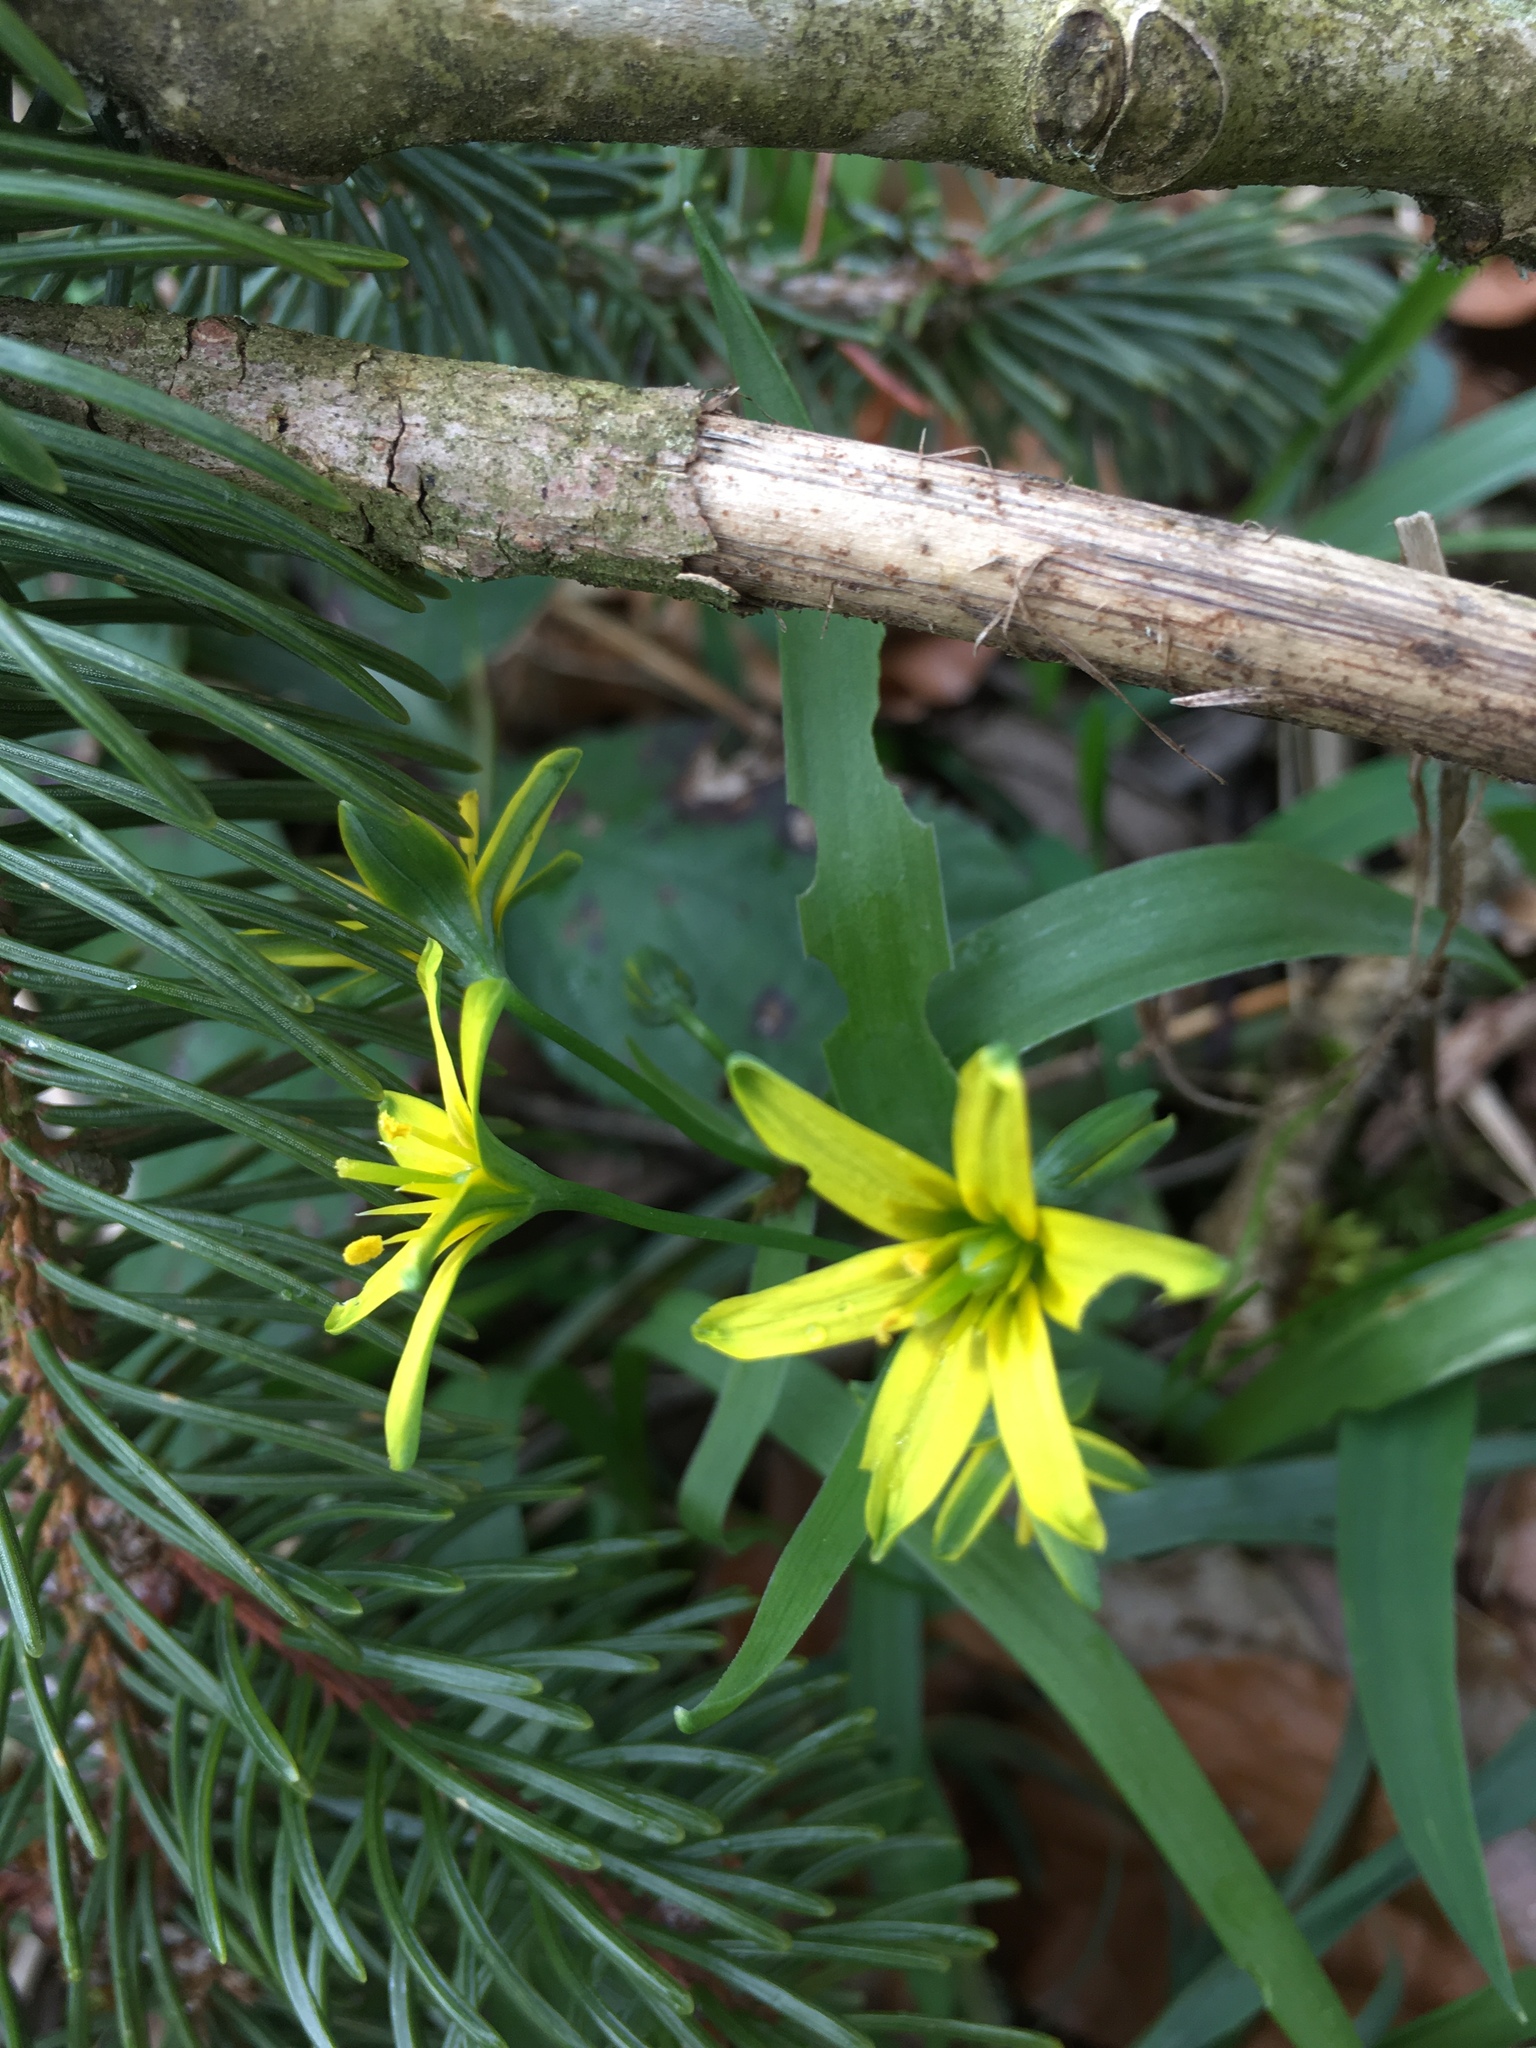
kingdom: Plantae
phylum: Tracheophyta
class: Liliopsida
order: Liliales
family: Liliaceae
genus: Gagea
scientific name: Gagea lutea
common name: Yellow star-of-bethlehem
